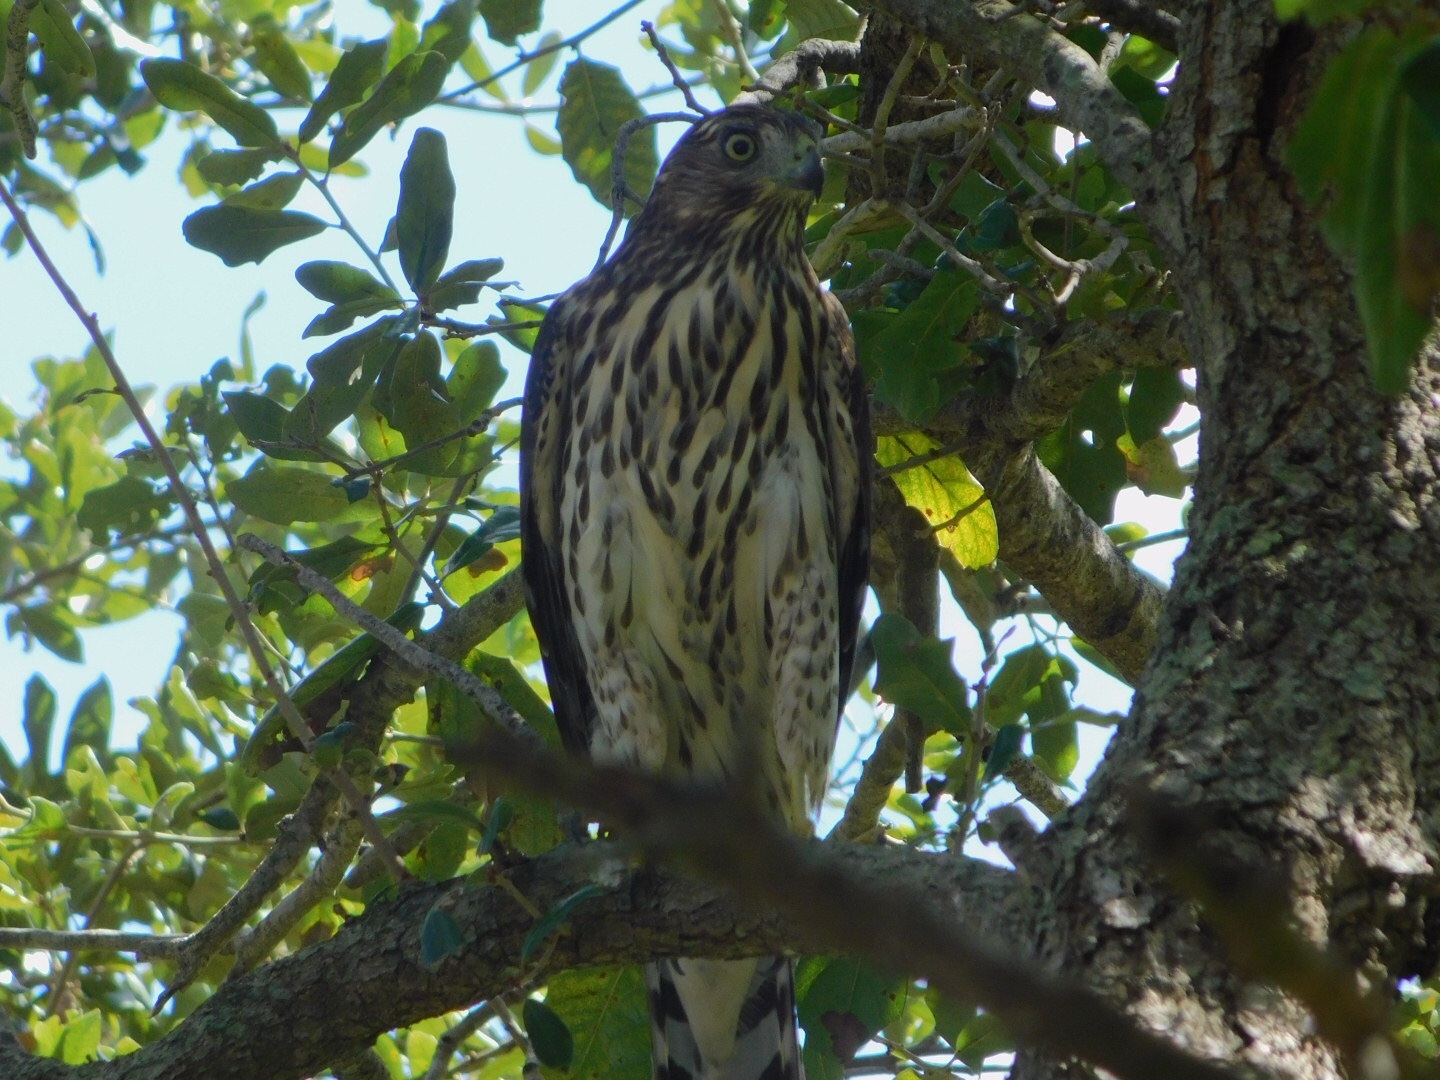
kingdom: Animalia
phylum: Chordata
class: Aves
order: Accipitriformes
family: Accipitridae
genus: Accipiter
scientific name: Accipiter cooperii
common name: Cooper's hawk
